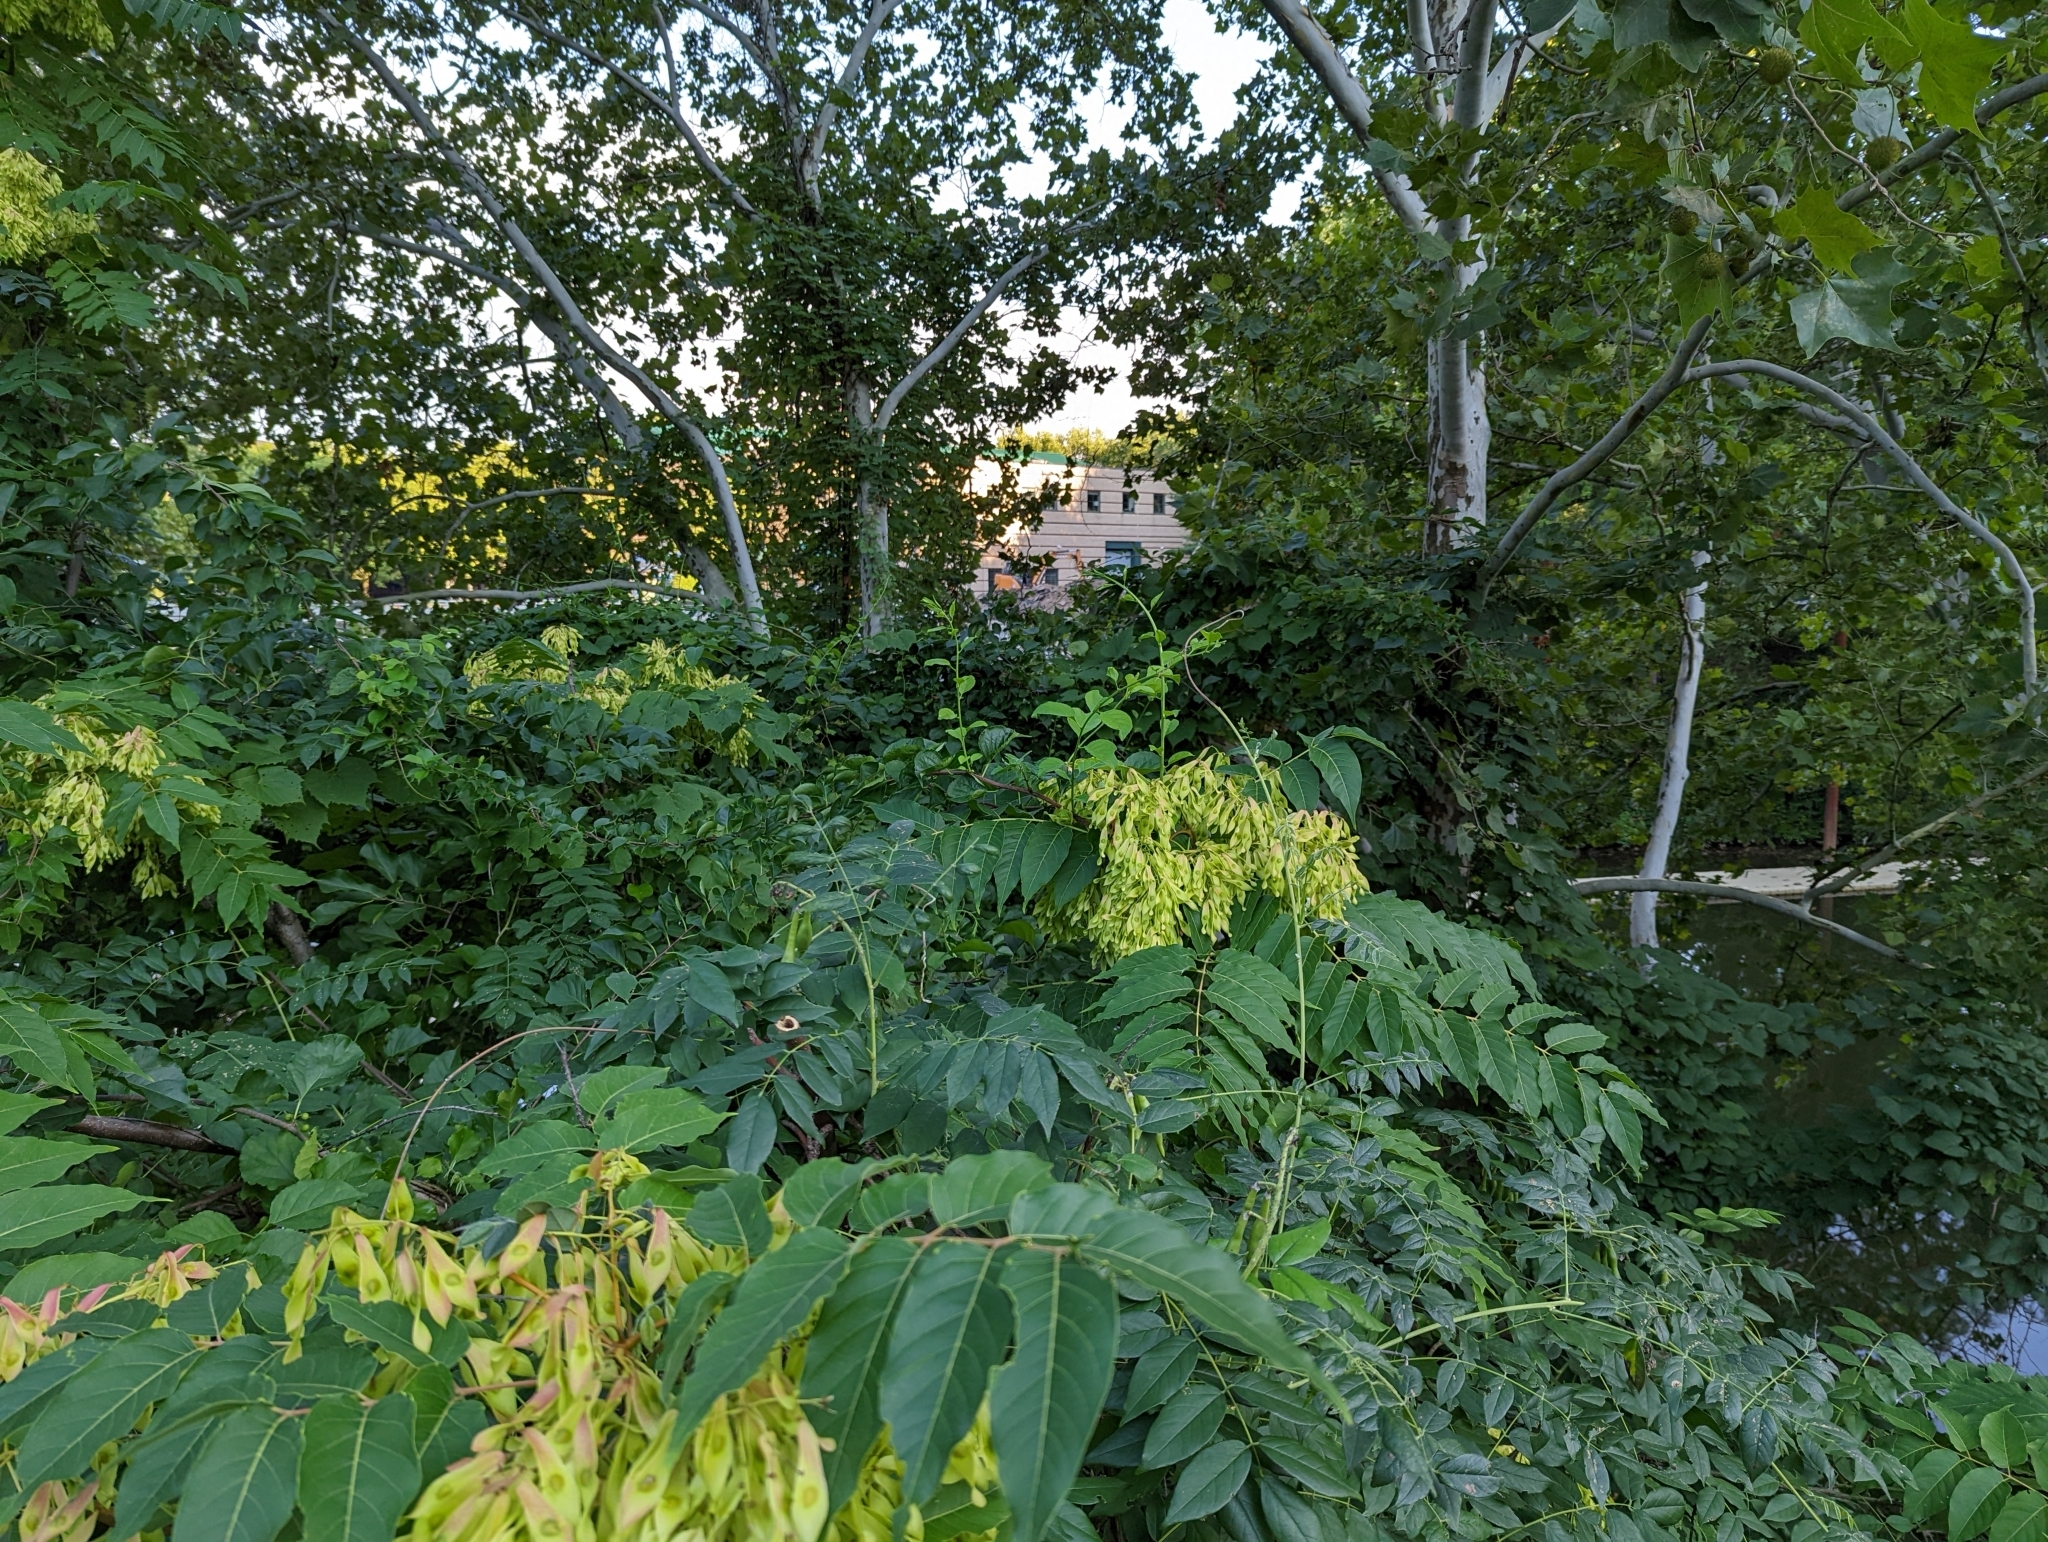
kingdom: Plantae
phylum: Tracheophyta
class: Magnoliopsida
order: Sapindales
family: Simaroubaceae
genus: Ailanthus
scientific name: Ailanthus altissima
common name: Tree-of-heaven
